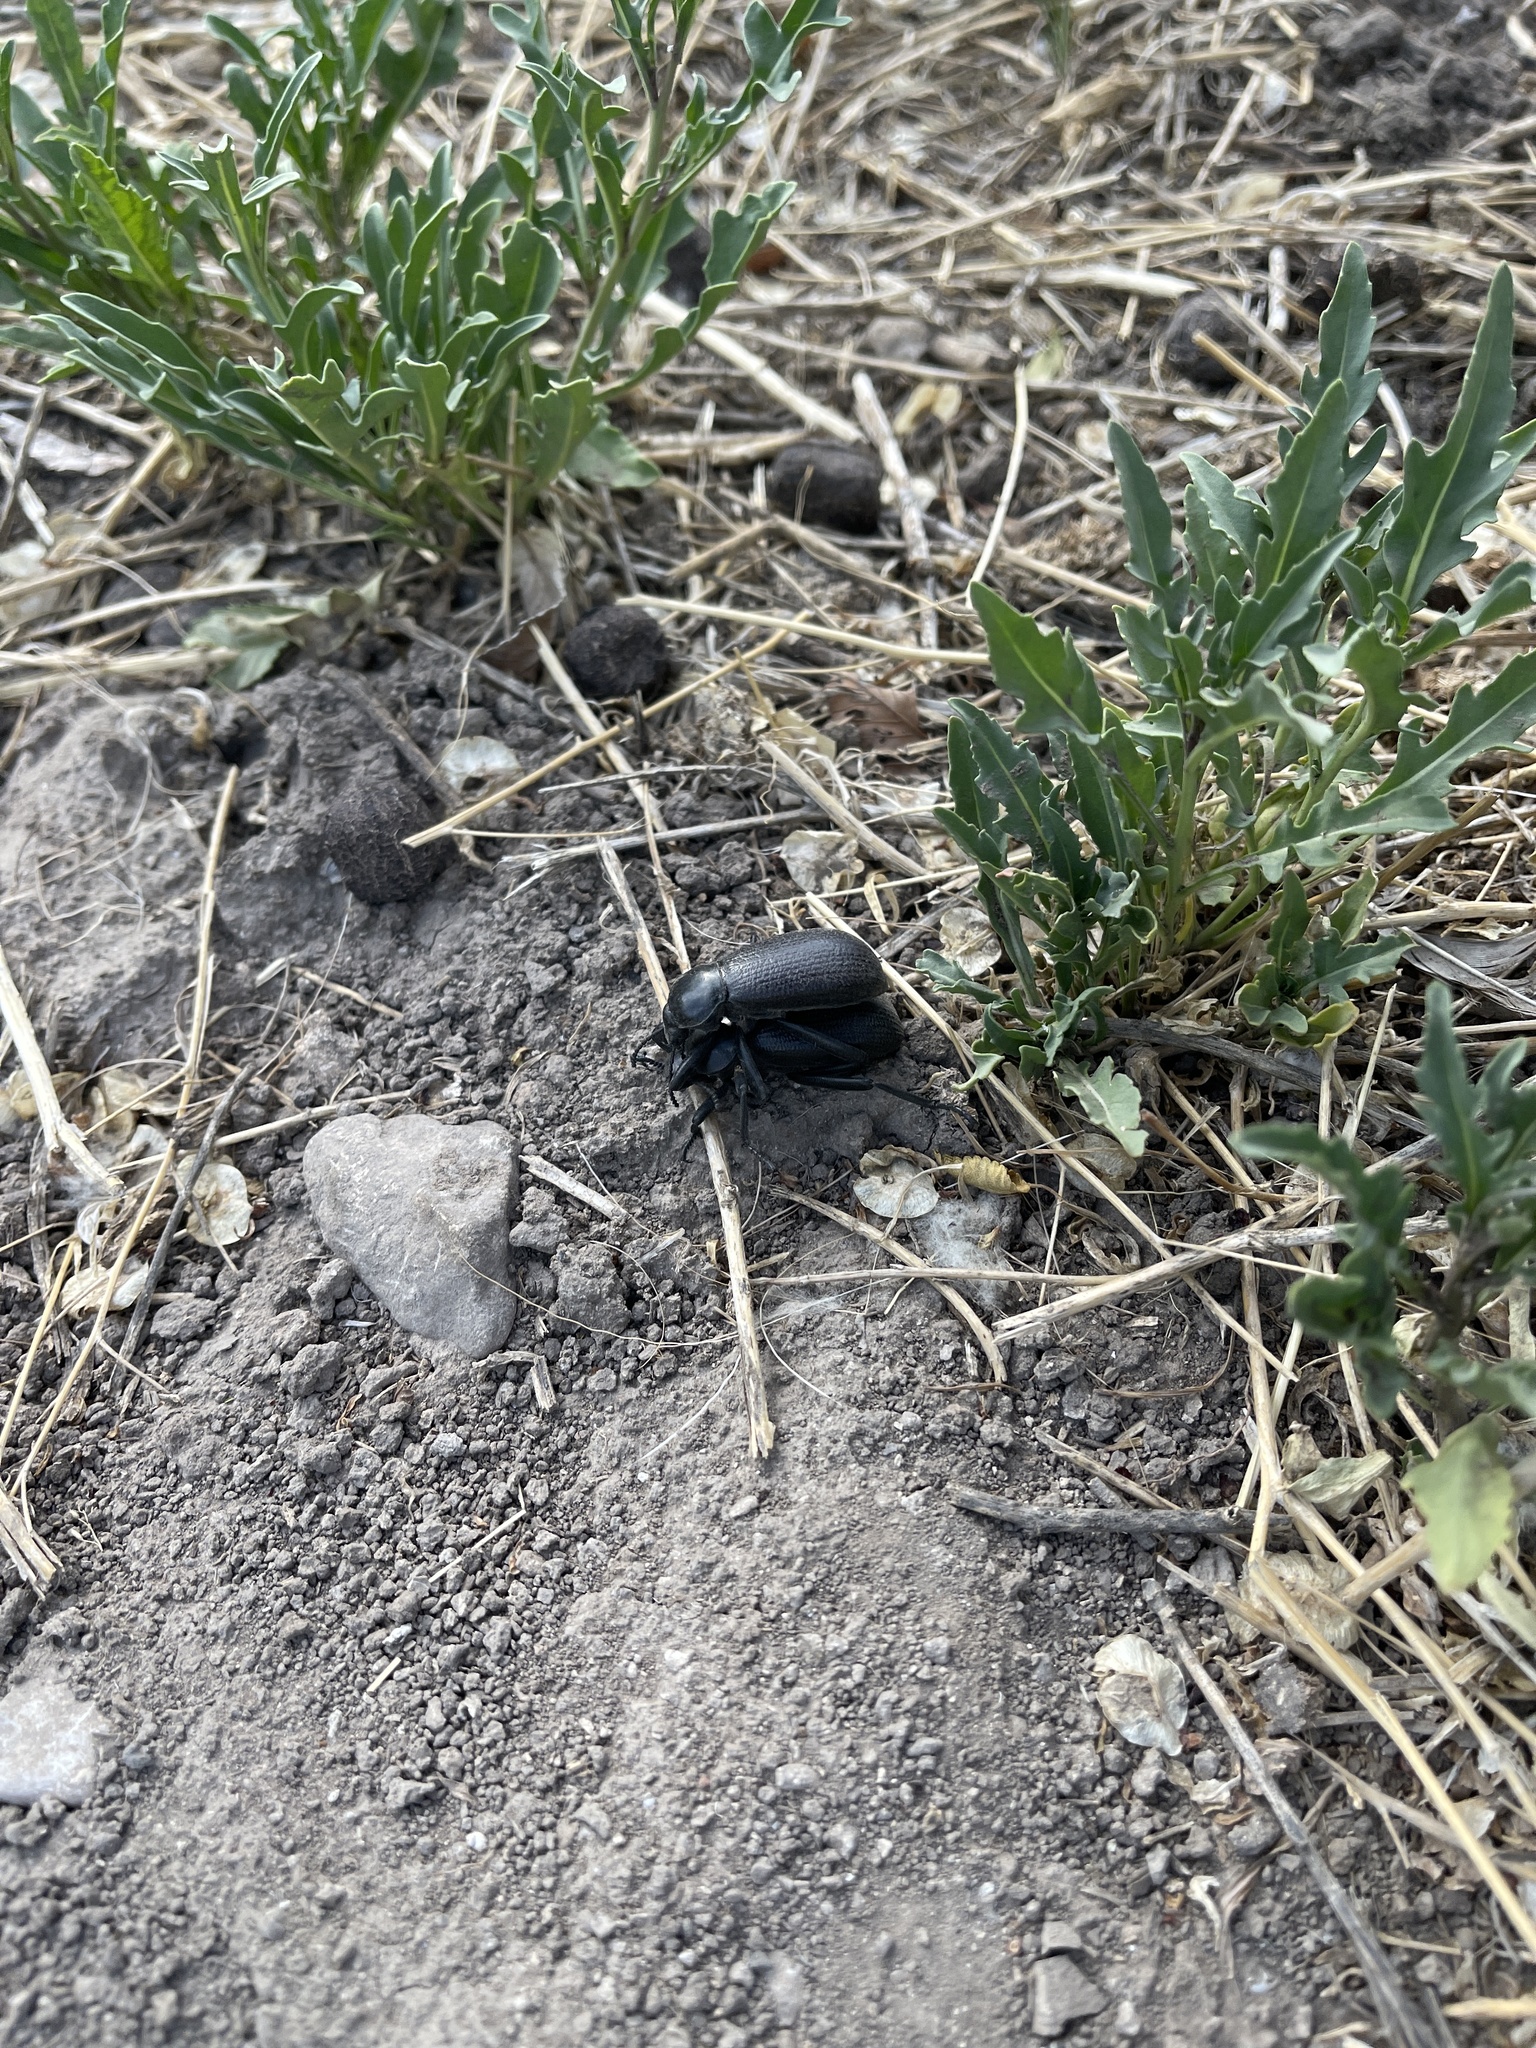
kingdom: Animalia
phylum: Arthropoda
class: Insecta
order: Coleoptera
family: Tenebrionidae
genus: Eleodes
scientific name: Eleodes obscura
